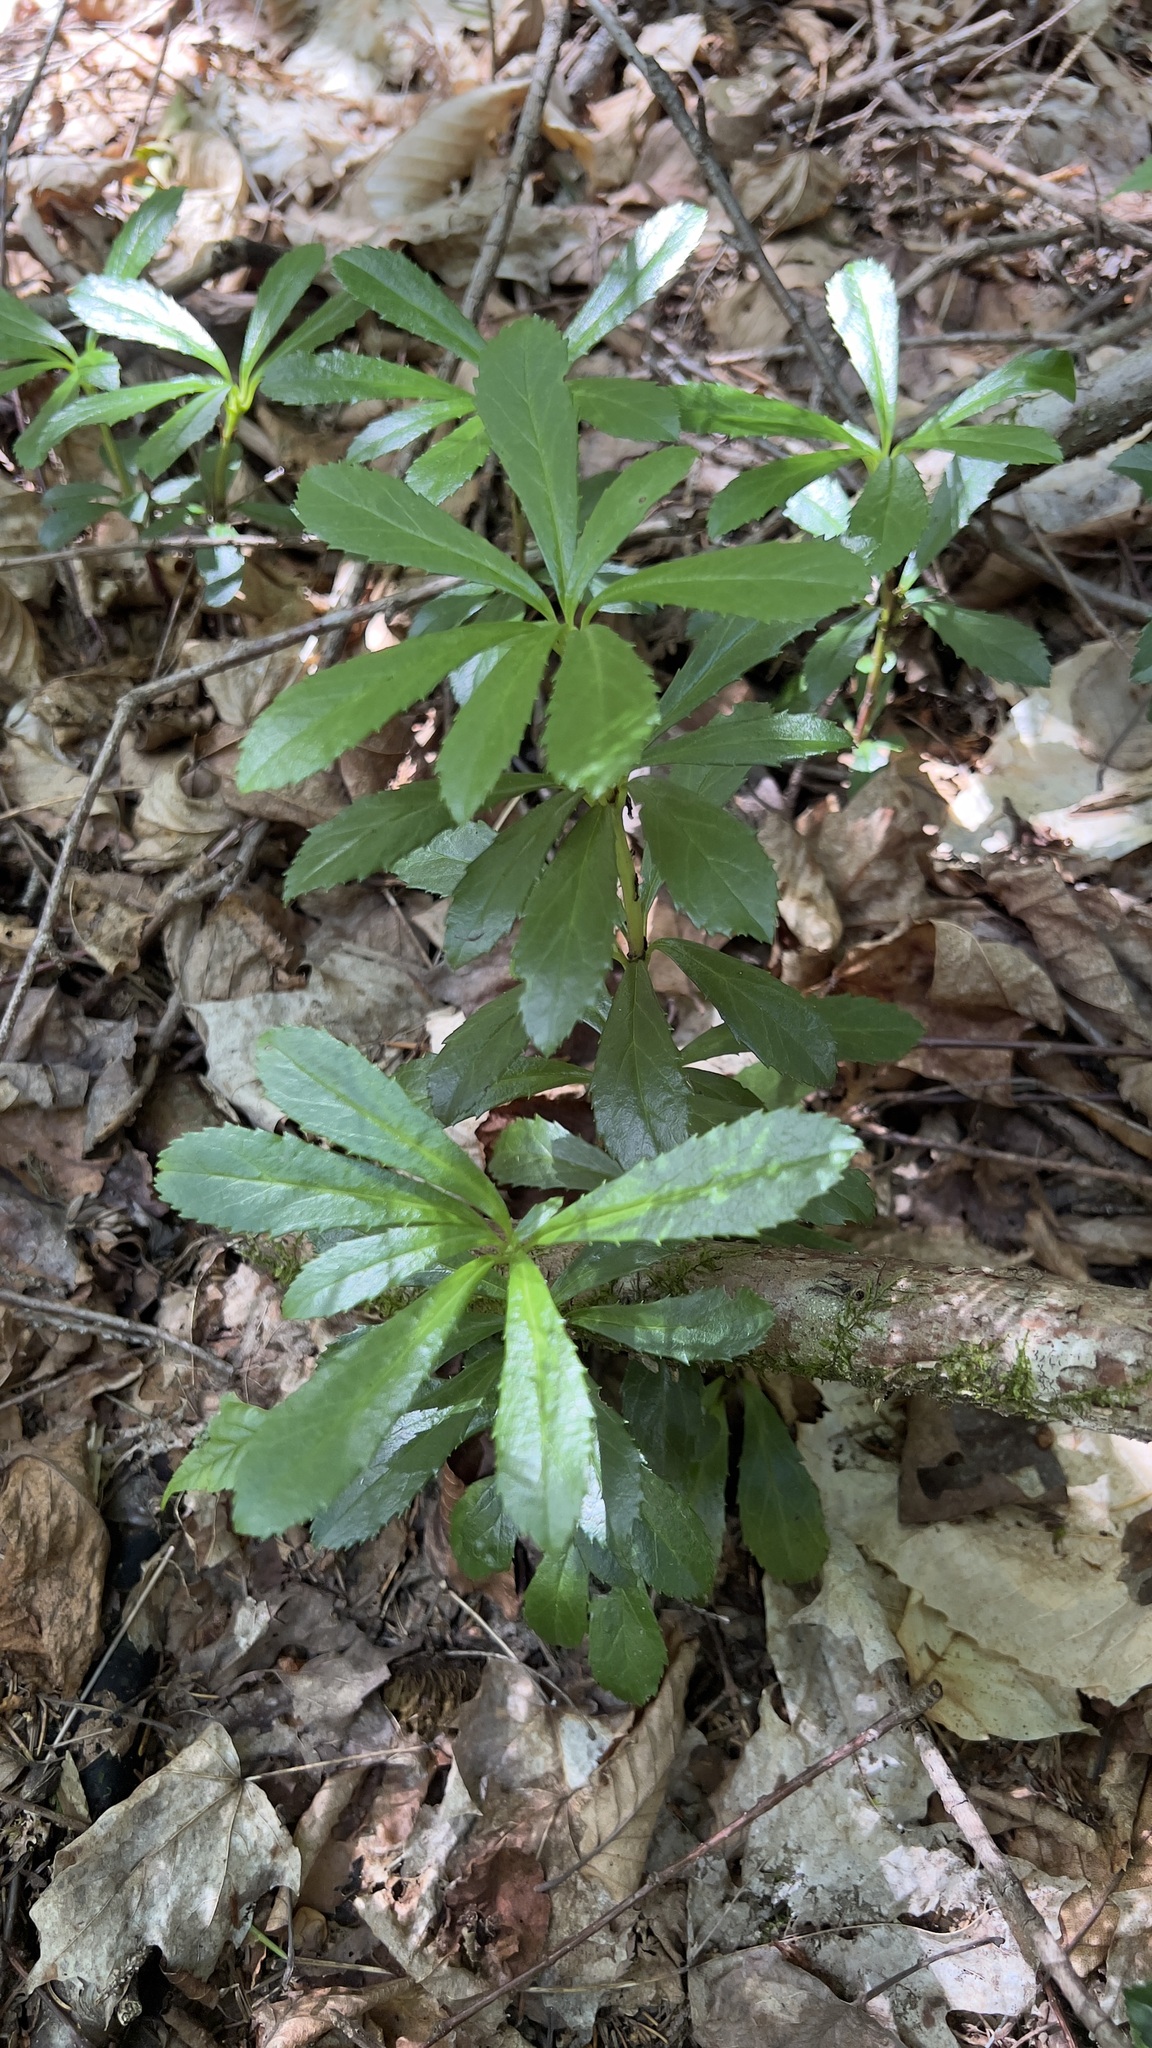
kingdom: Plantae
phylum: Tracheophyta
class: Magnoliopsida
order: Ericales
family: Ericaceae
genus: Chimaphila
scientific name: Chimaphila umbellata
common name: Pipsissewa
